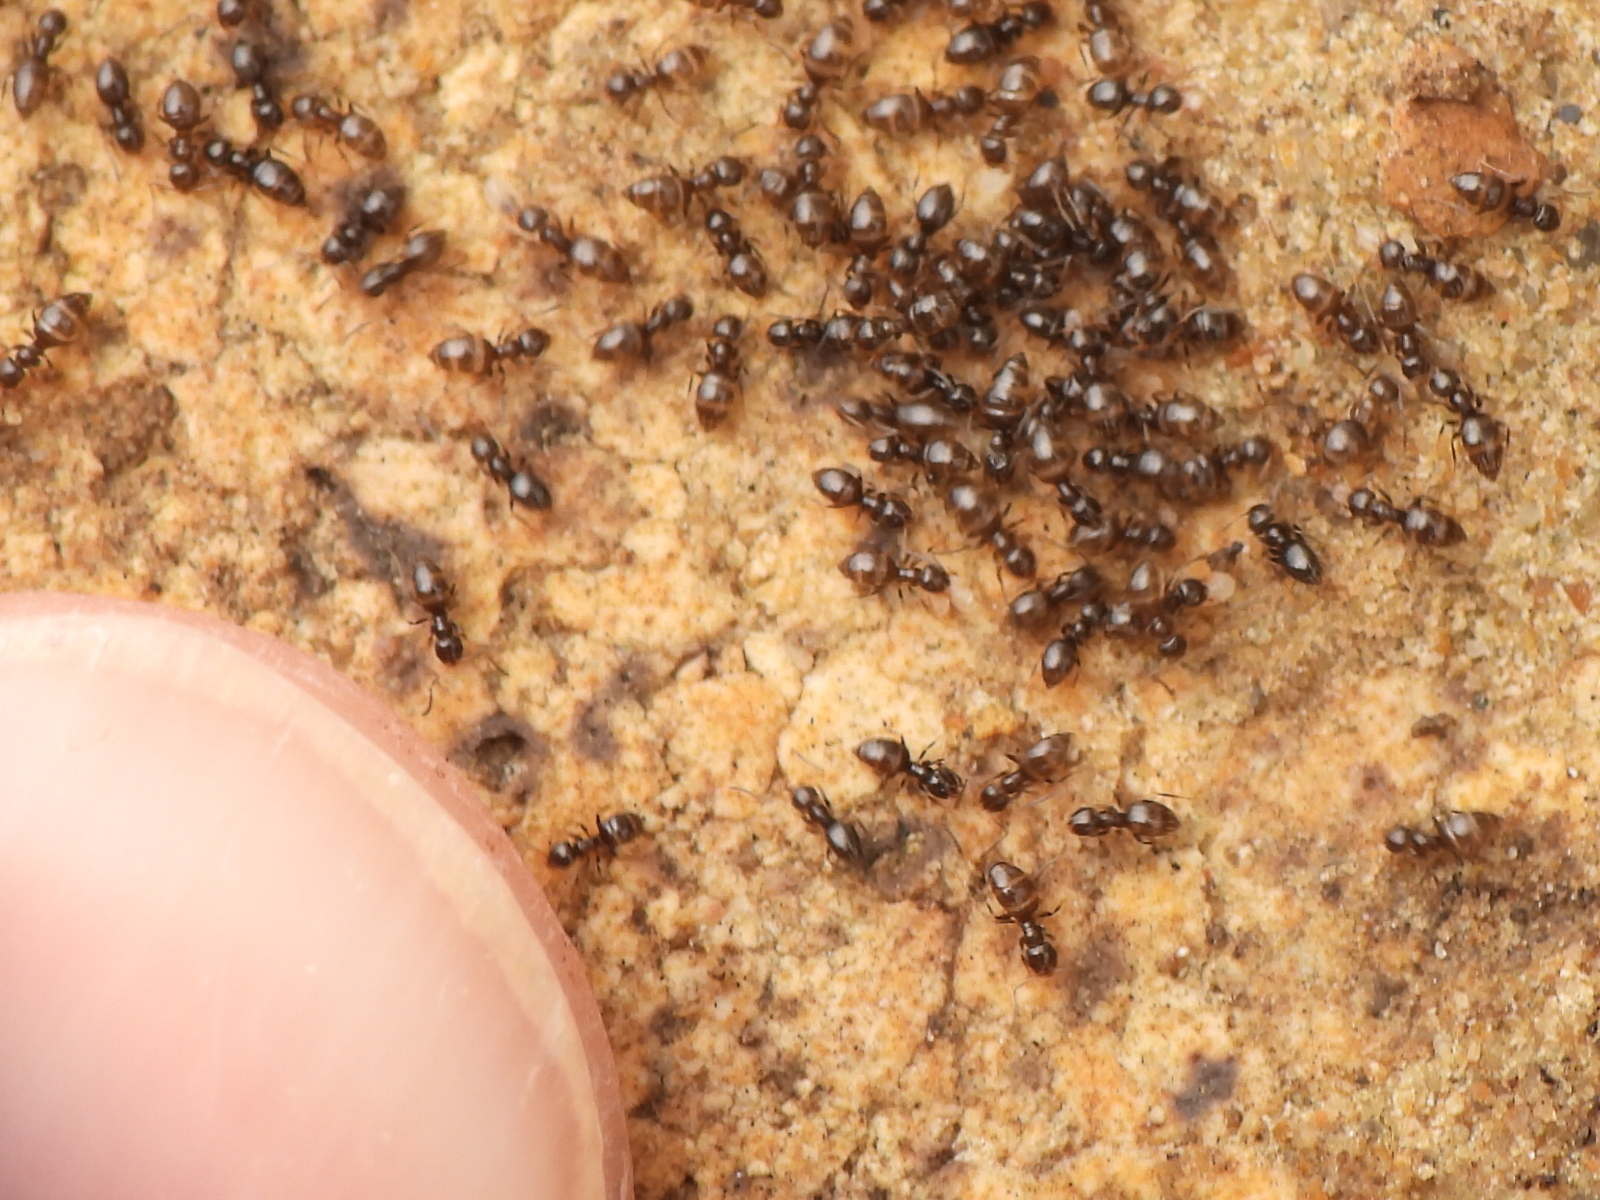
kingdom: Animalia
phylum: Arthropoda
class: Insecta
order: Hymenoptera
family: Formicidae
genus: Brachymyrmex
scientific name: Brachymyrmex patagonicus
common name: Dark rover ant
